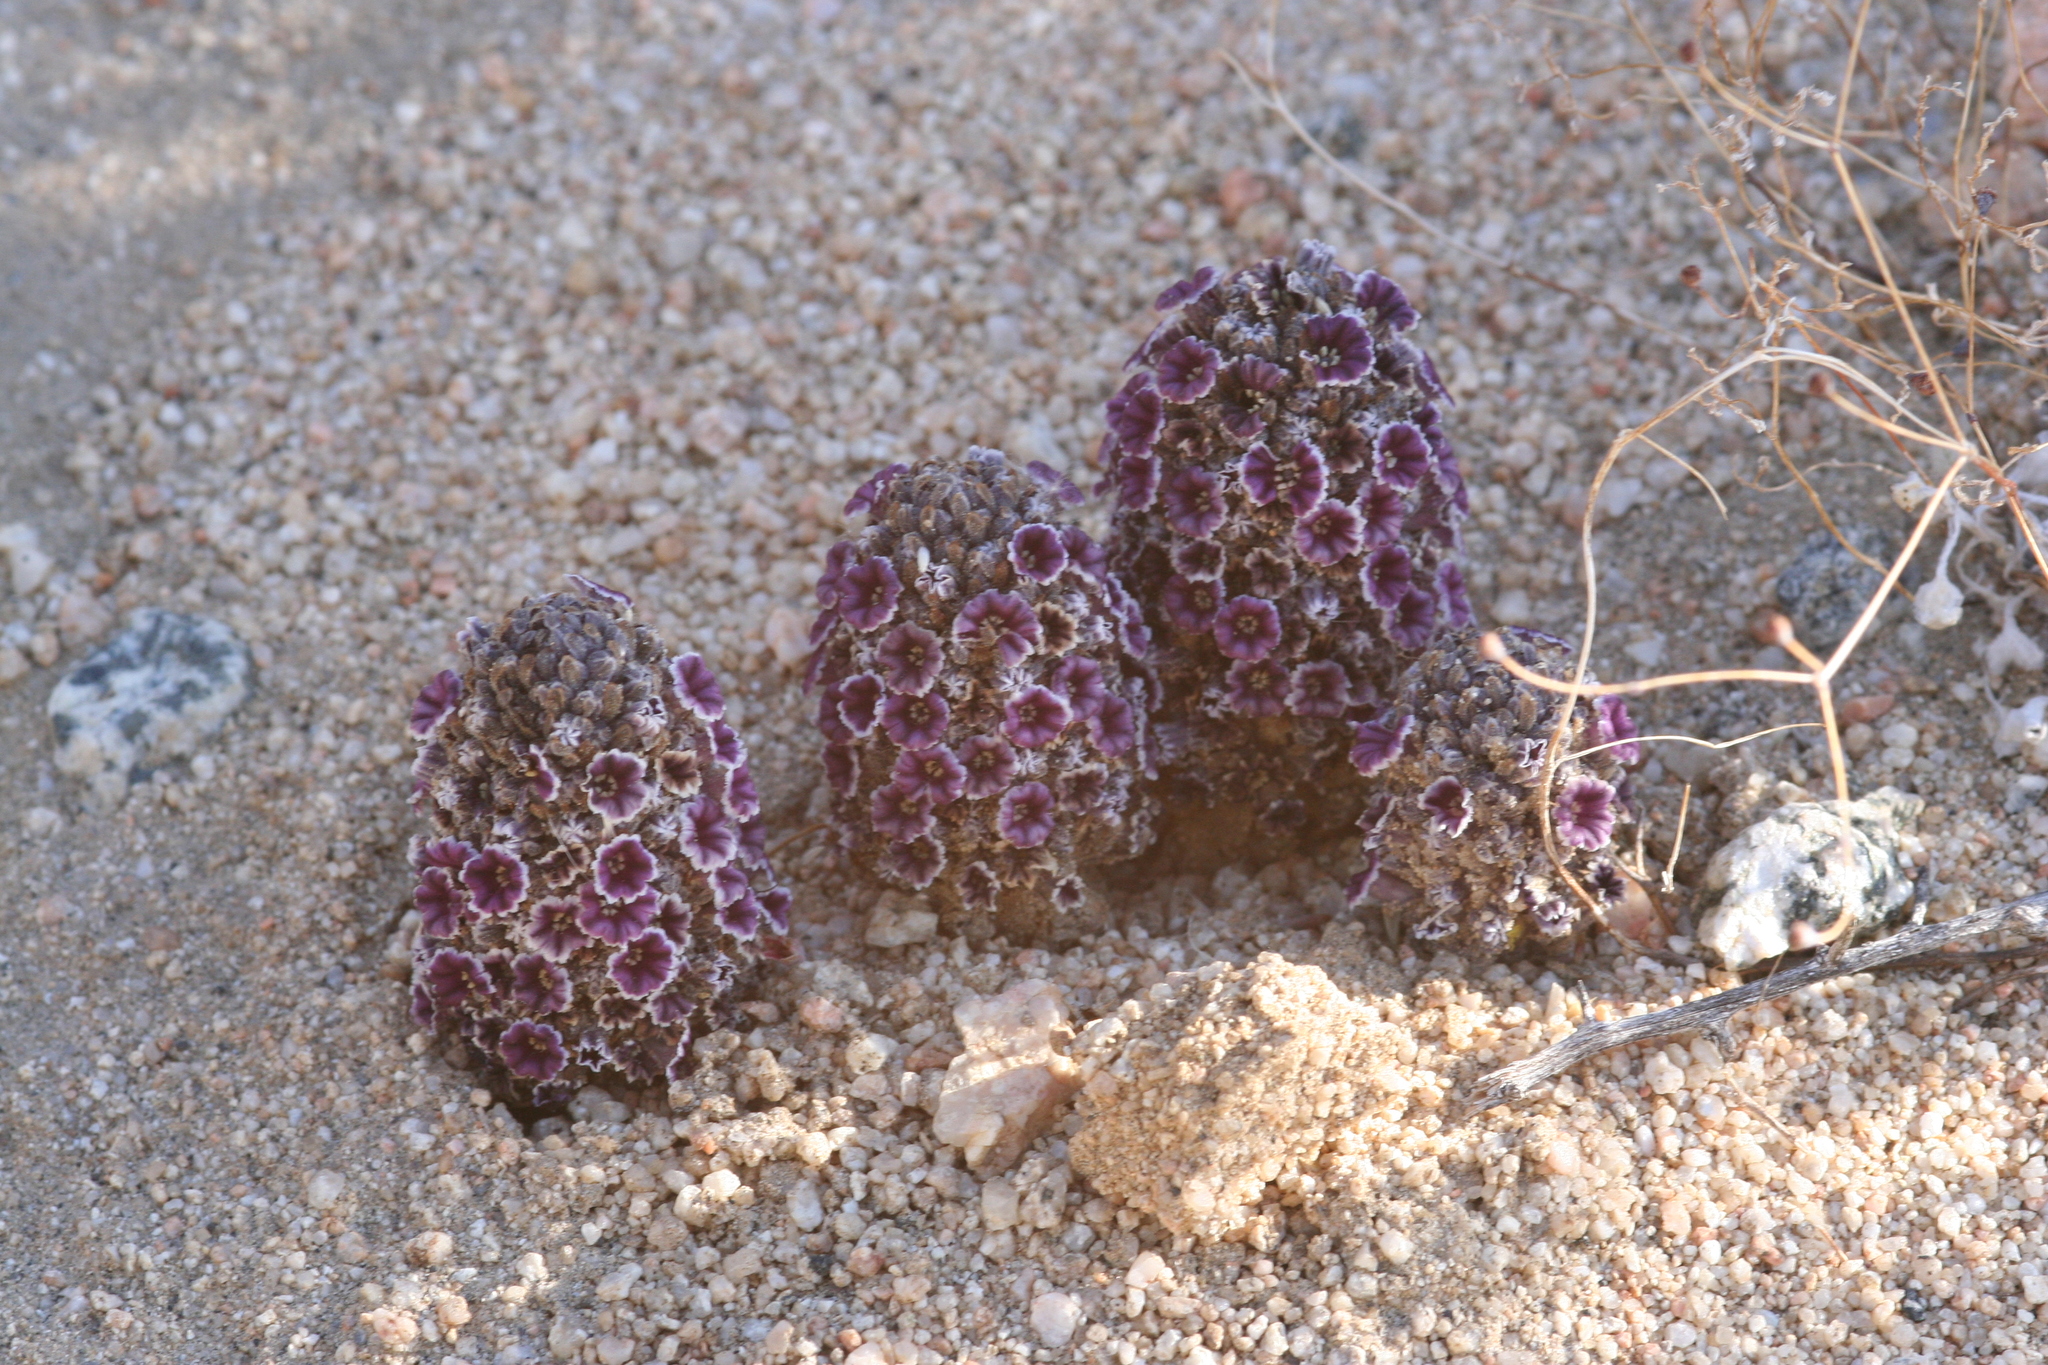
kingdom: Plantae
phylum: Tracheophyta
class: Magnoliopsida
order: Boraginales
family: Lennoaceae
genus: Pholisma
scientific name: Pholisma arenarium
